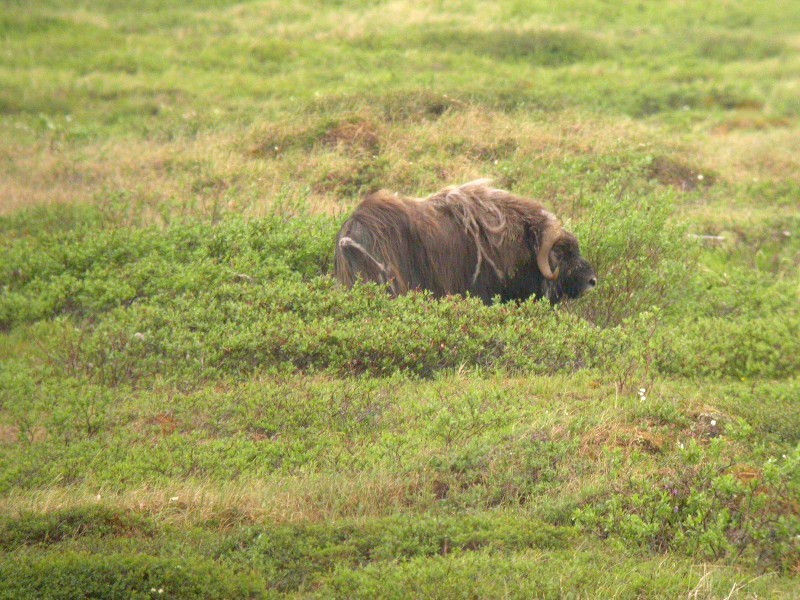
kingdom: Animalia
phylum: Chordata
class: Mammalia
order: Artiodactyla
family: Bovidae
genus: Ovibos
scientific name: Ovibos moschatus
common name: Muskox
